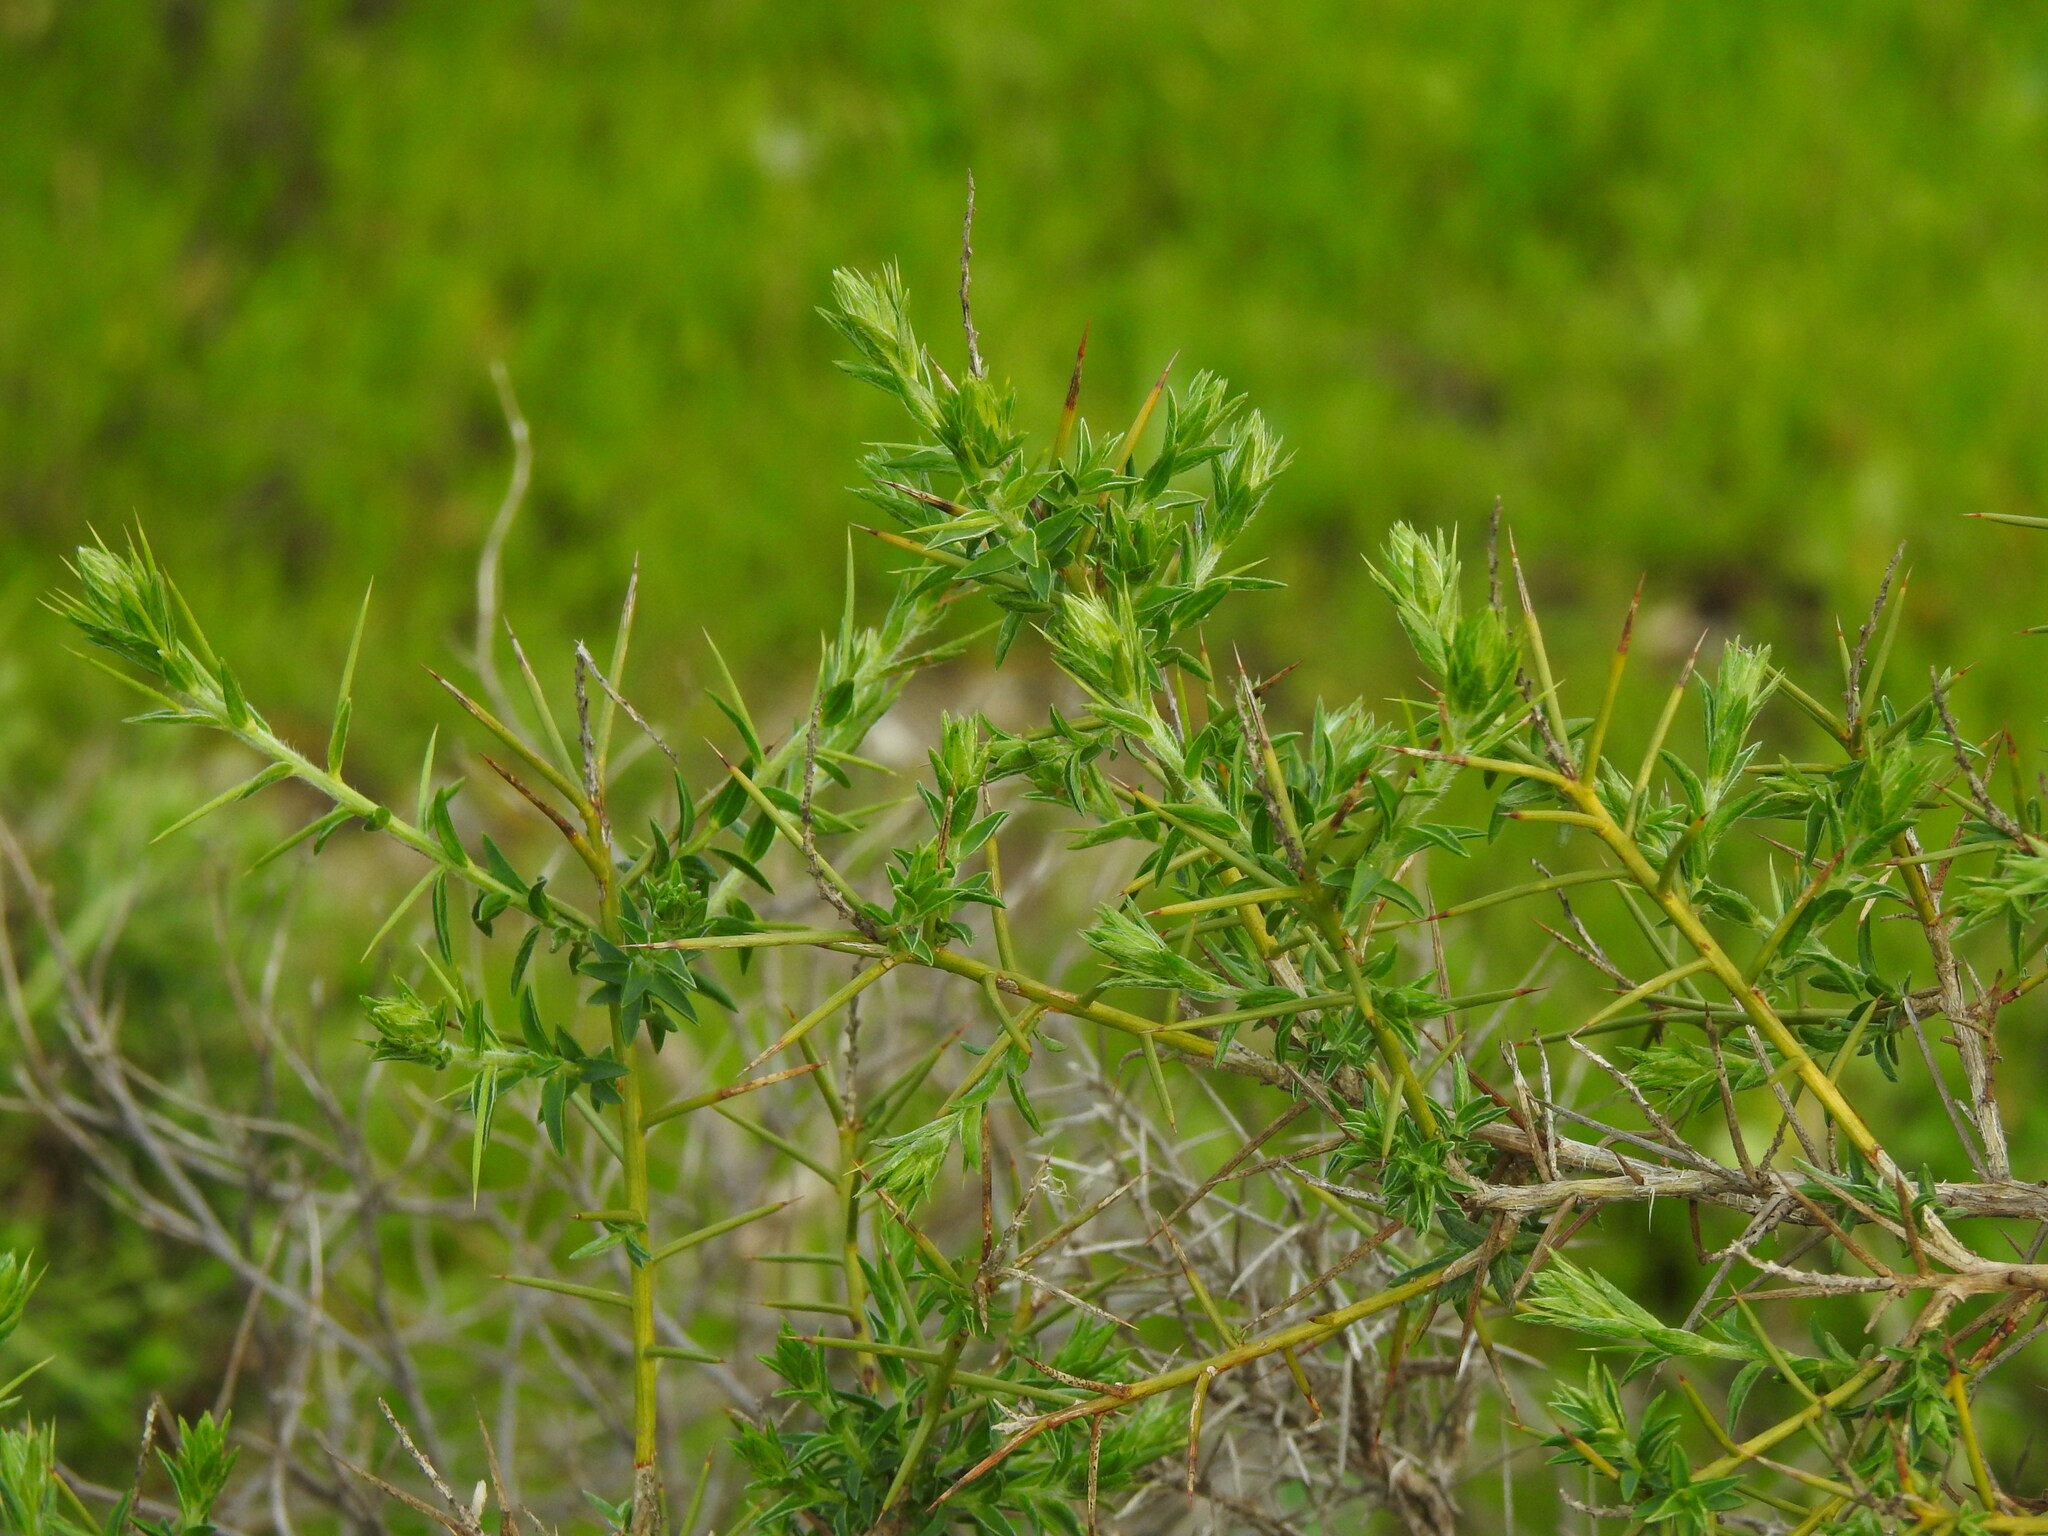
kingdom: Plantae
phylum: Tracheophyta
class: Magnoliopsida
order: Fabales
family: Fabaceae
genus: Genista
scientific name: Genista hirsuta
